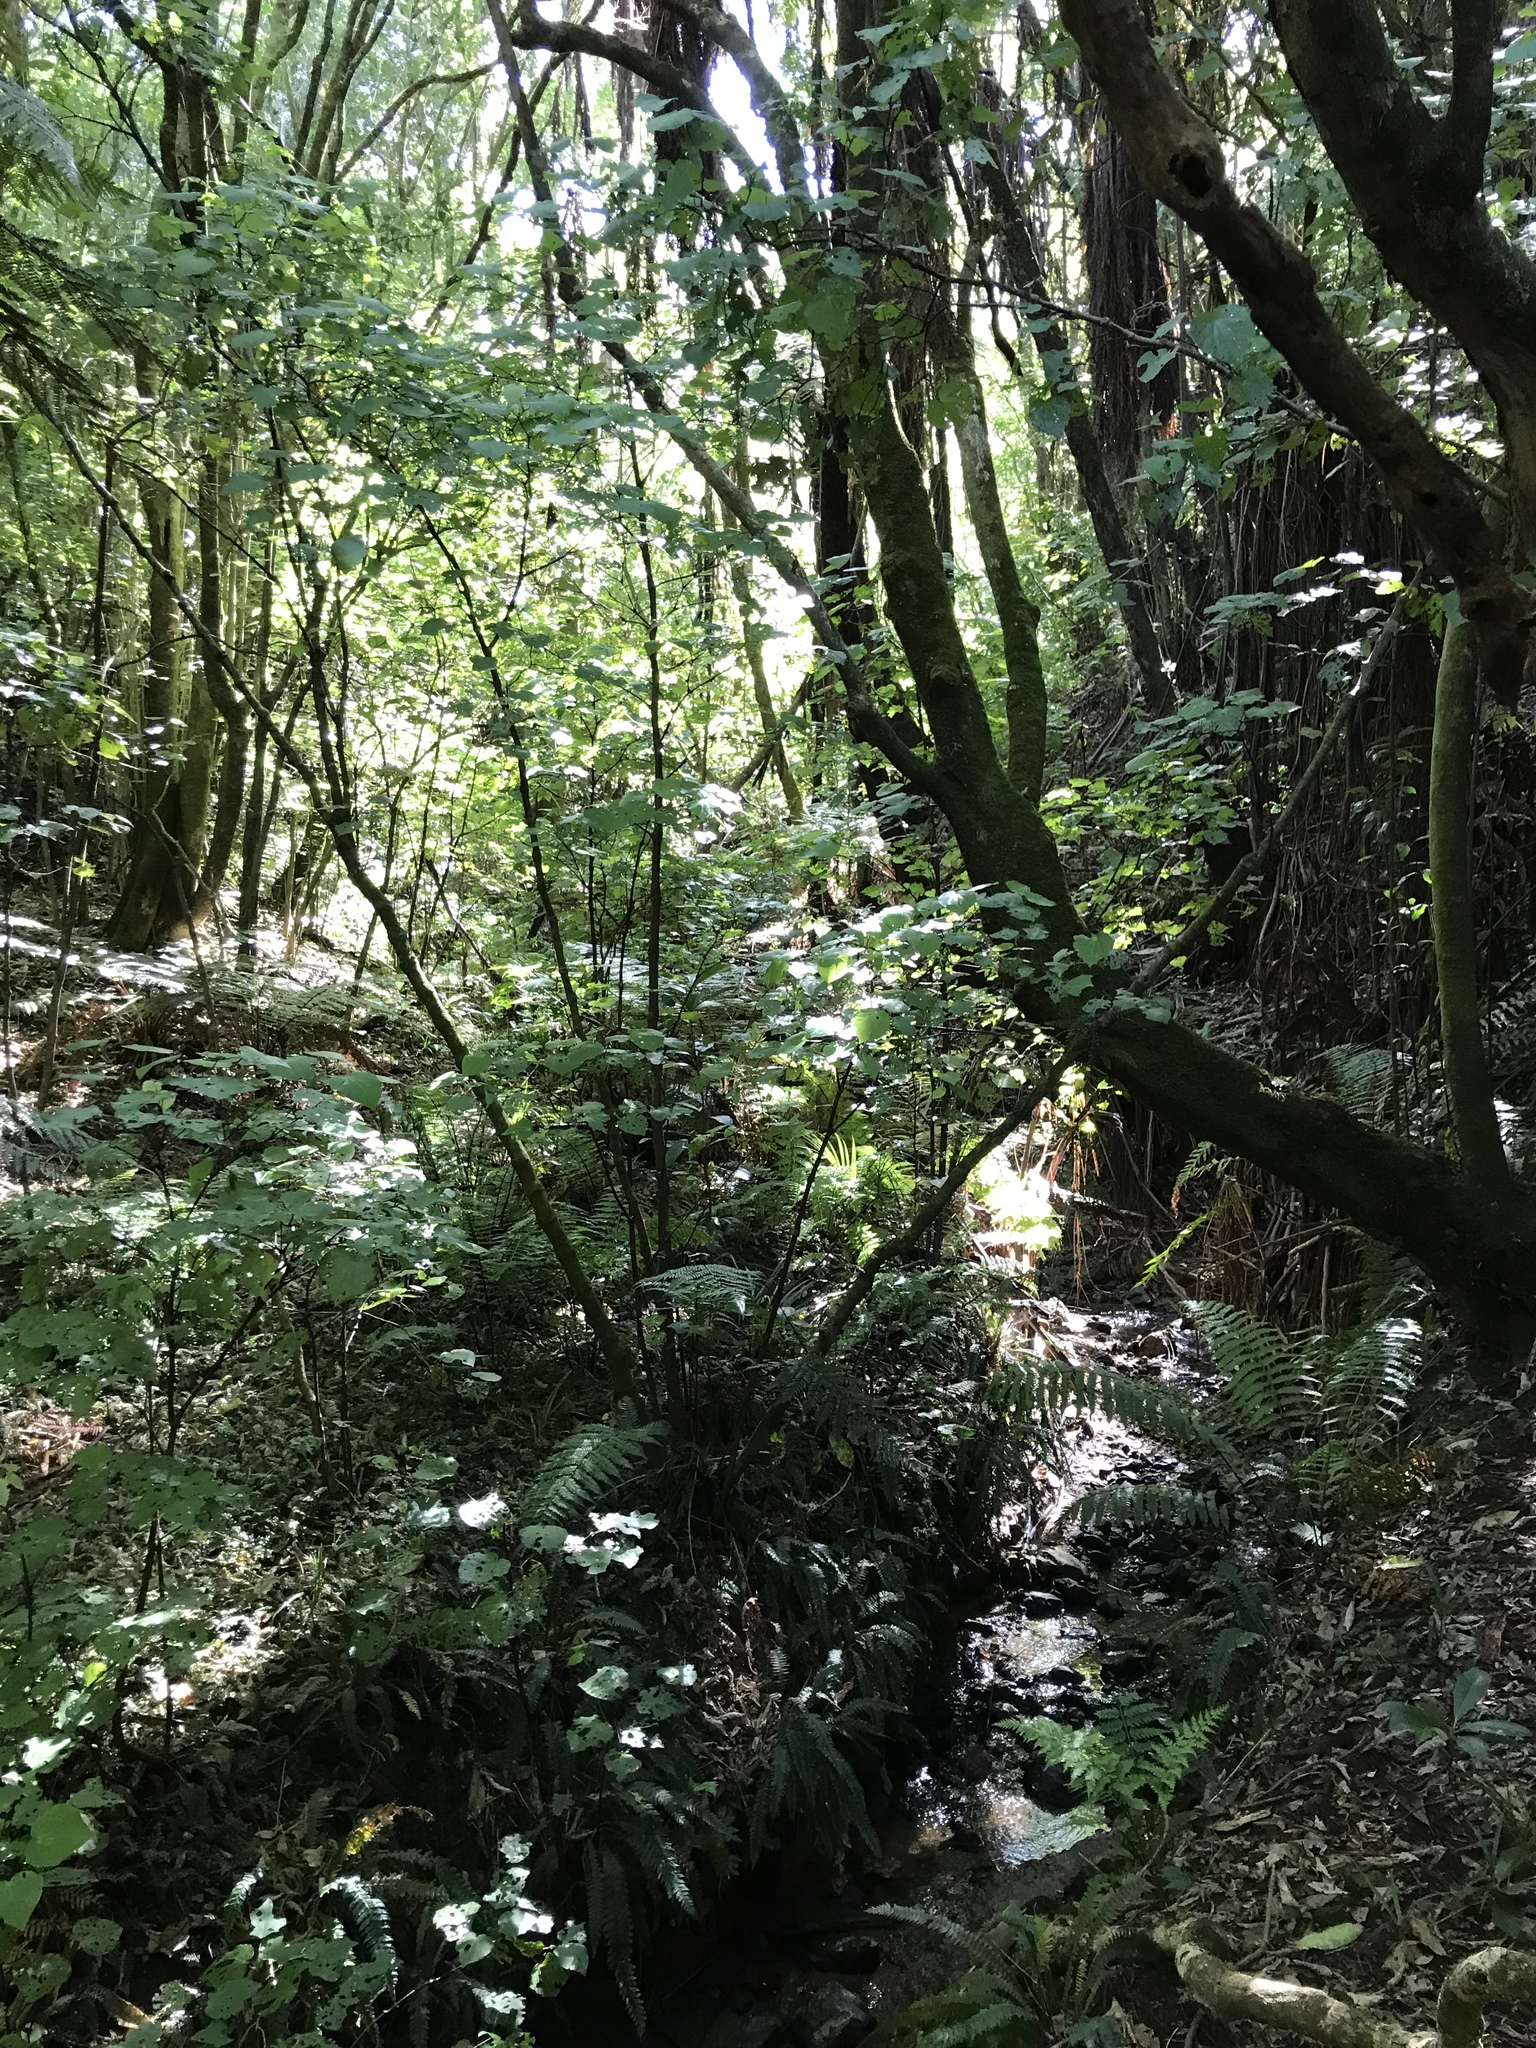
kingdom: Plantae
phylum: Tracheophyta
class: Magnoliopsida
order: Piperales
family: Piperaceae
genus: Macropiper
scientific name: Macropiper excelsum
